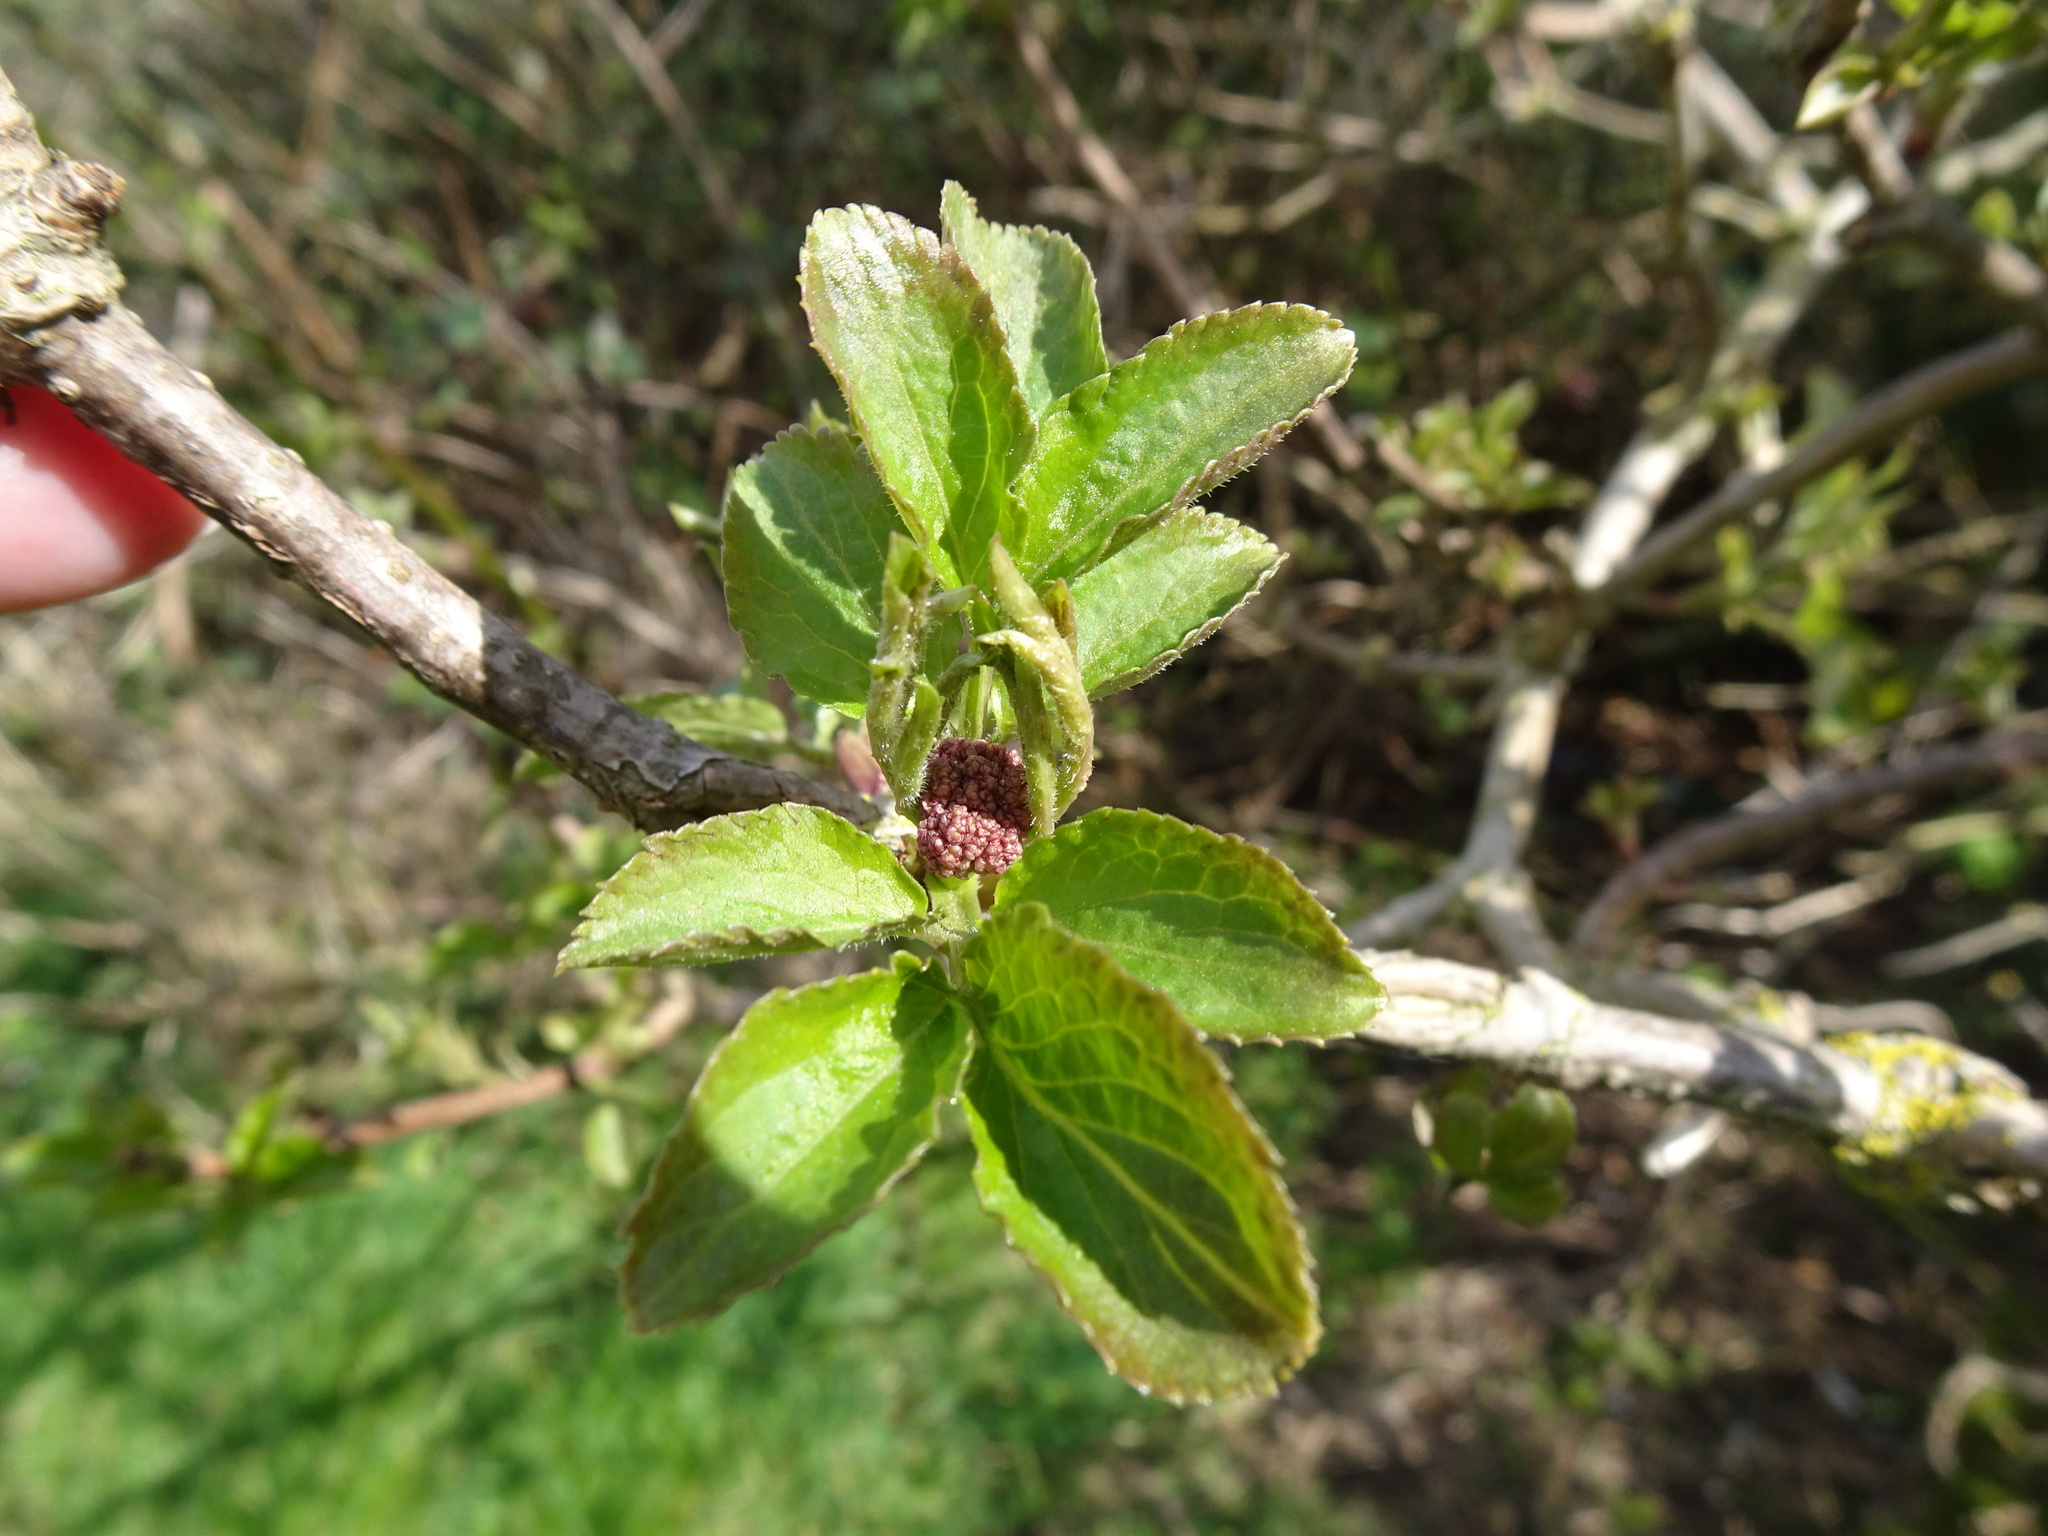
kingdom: Plantae
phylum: Tracheophyta
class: Magnoliopsida
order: Dipsacales
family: Viburnaceae
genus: Sambucus
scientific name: Sambucus nigra
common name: Elder
